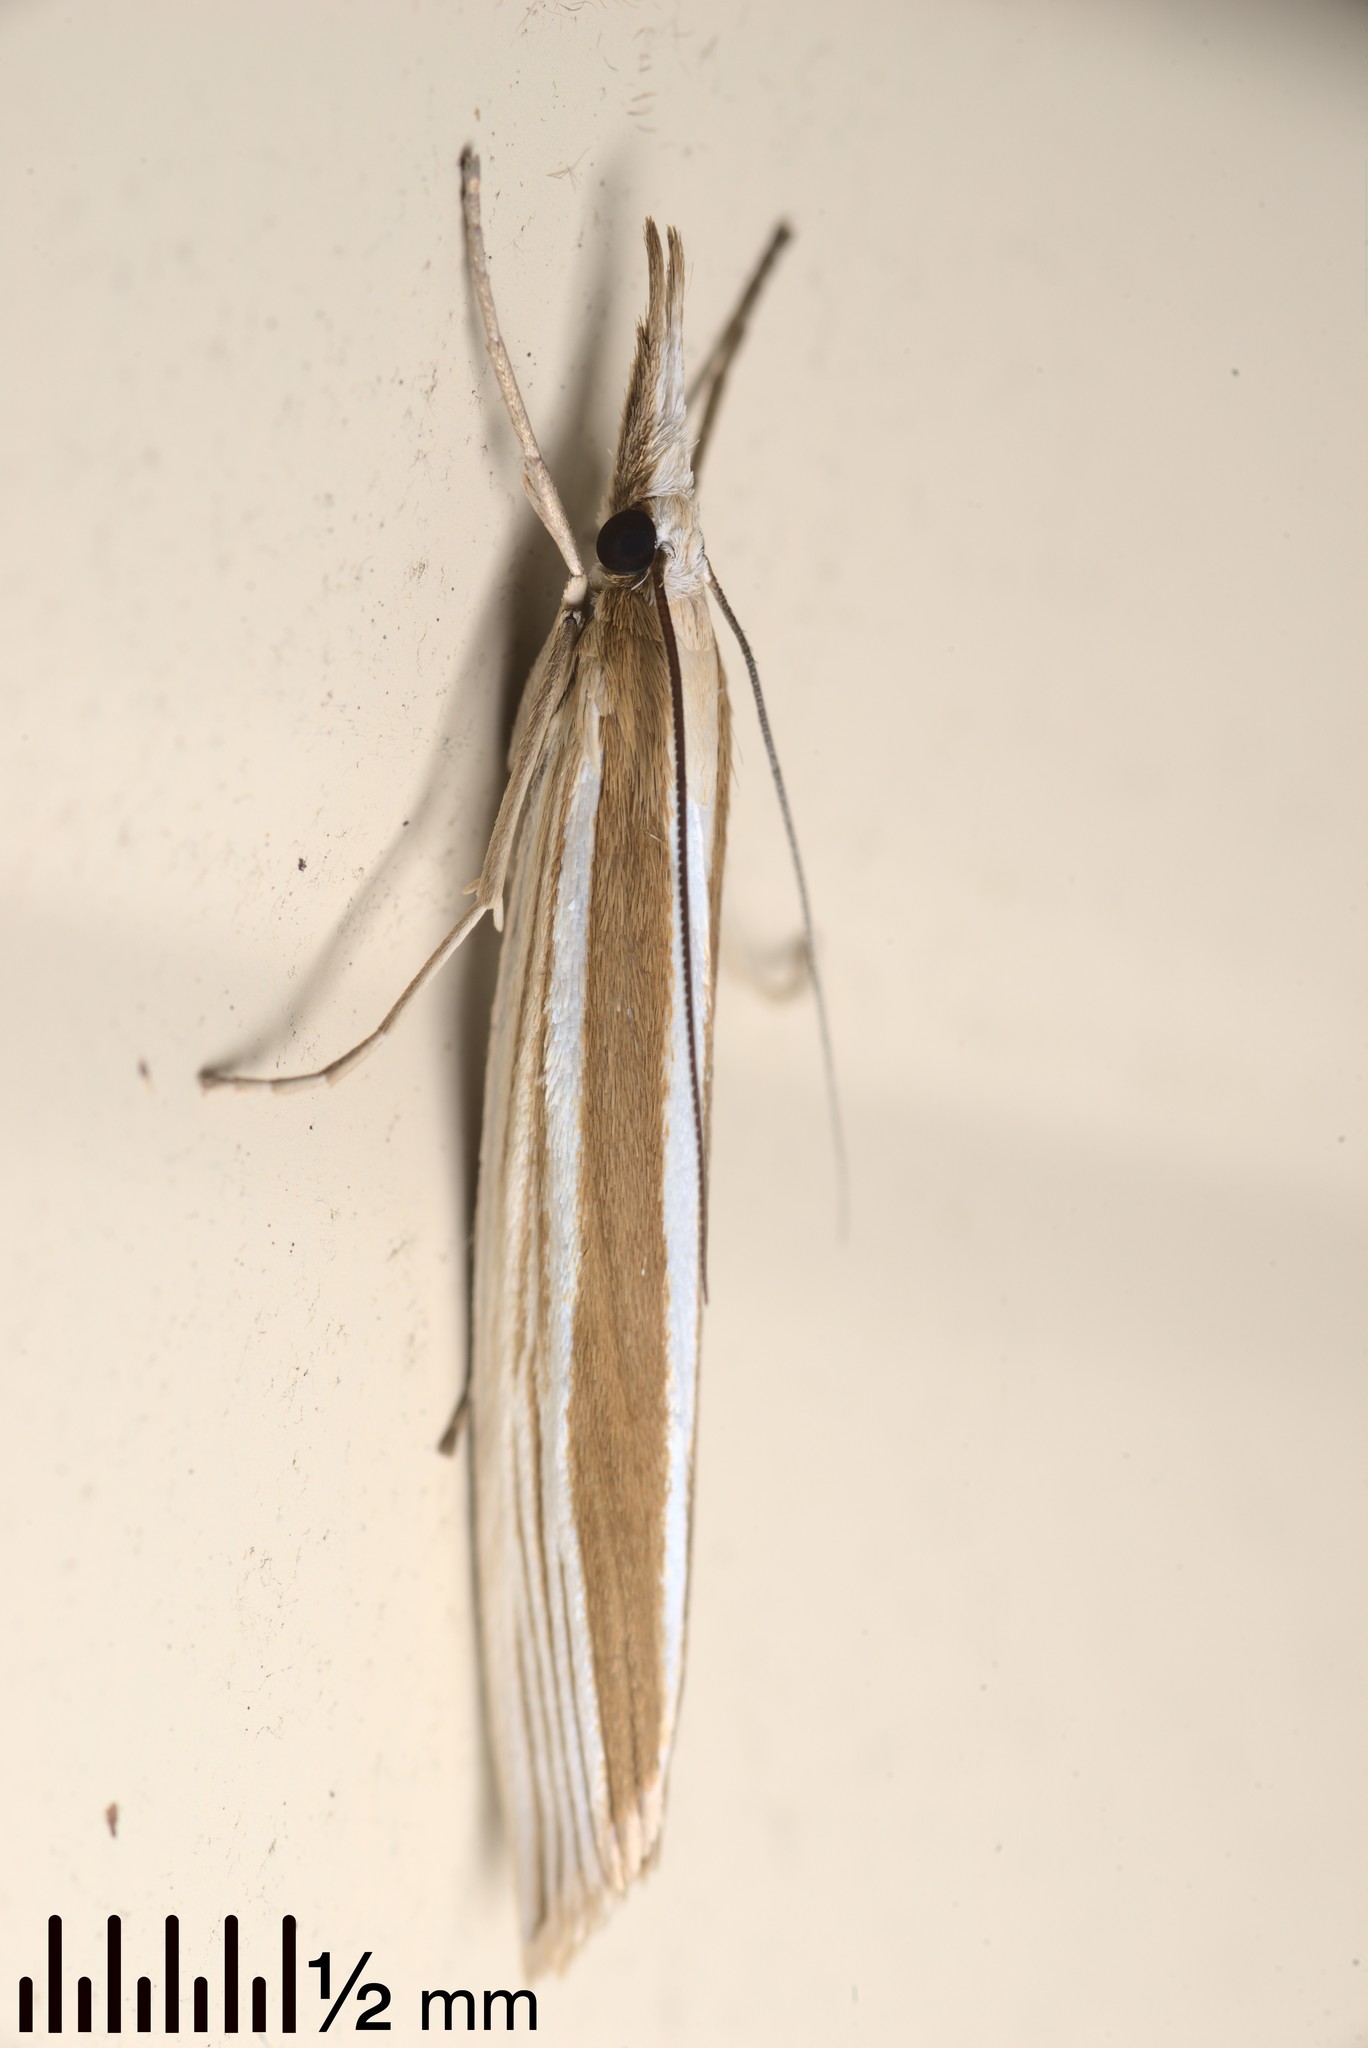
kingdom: Animalia
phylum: Arthropoda
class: Insecta
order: Lepidoptera
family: Crambidae
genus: Orocrambus
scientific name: Orocrambus angustipennis
